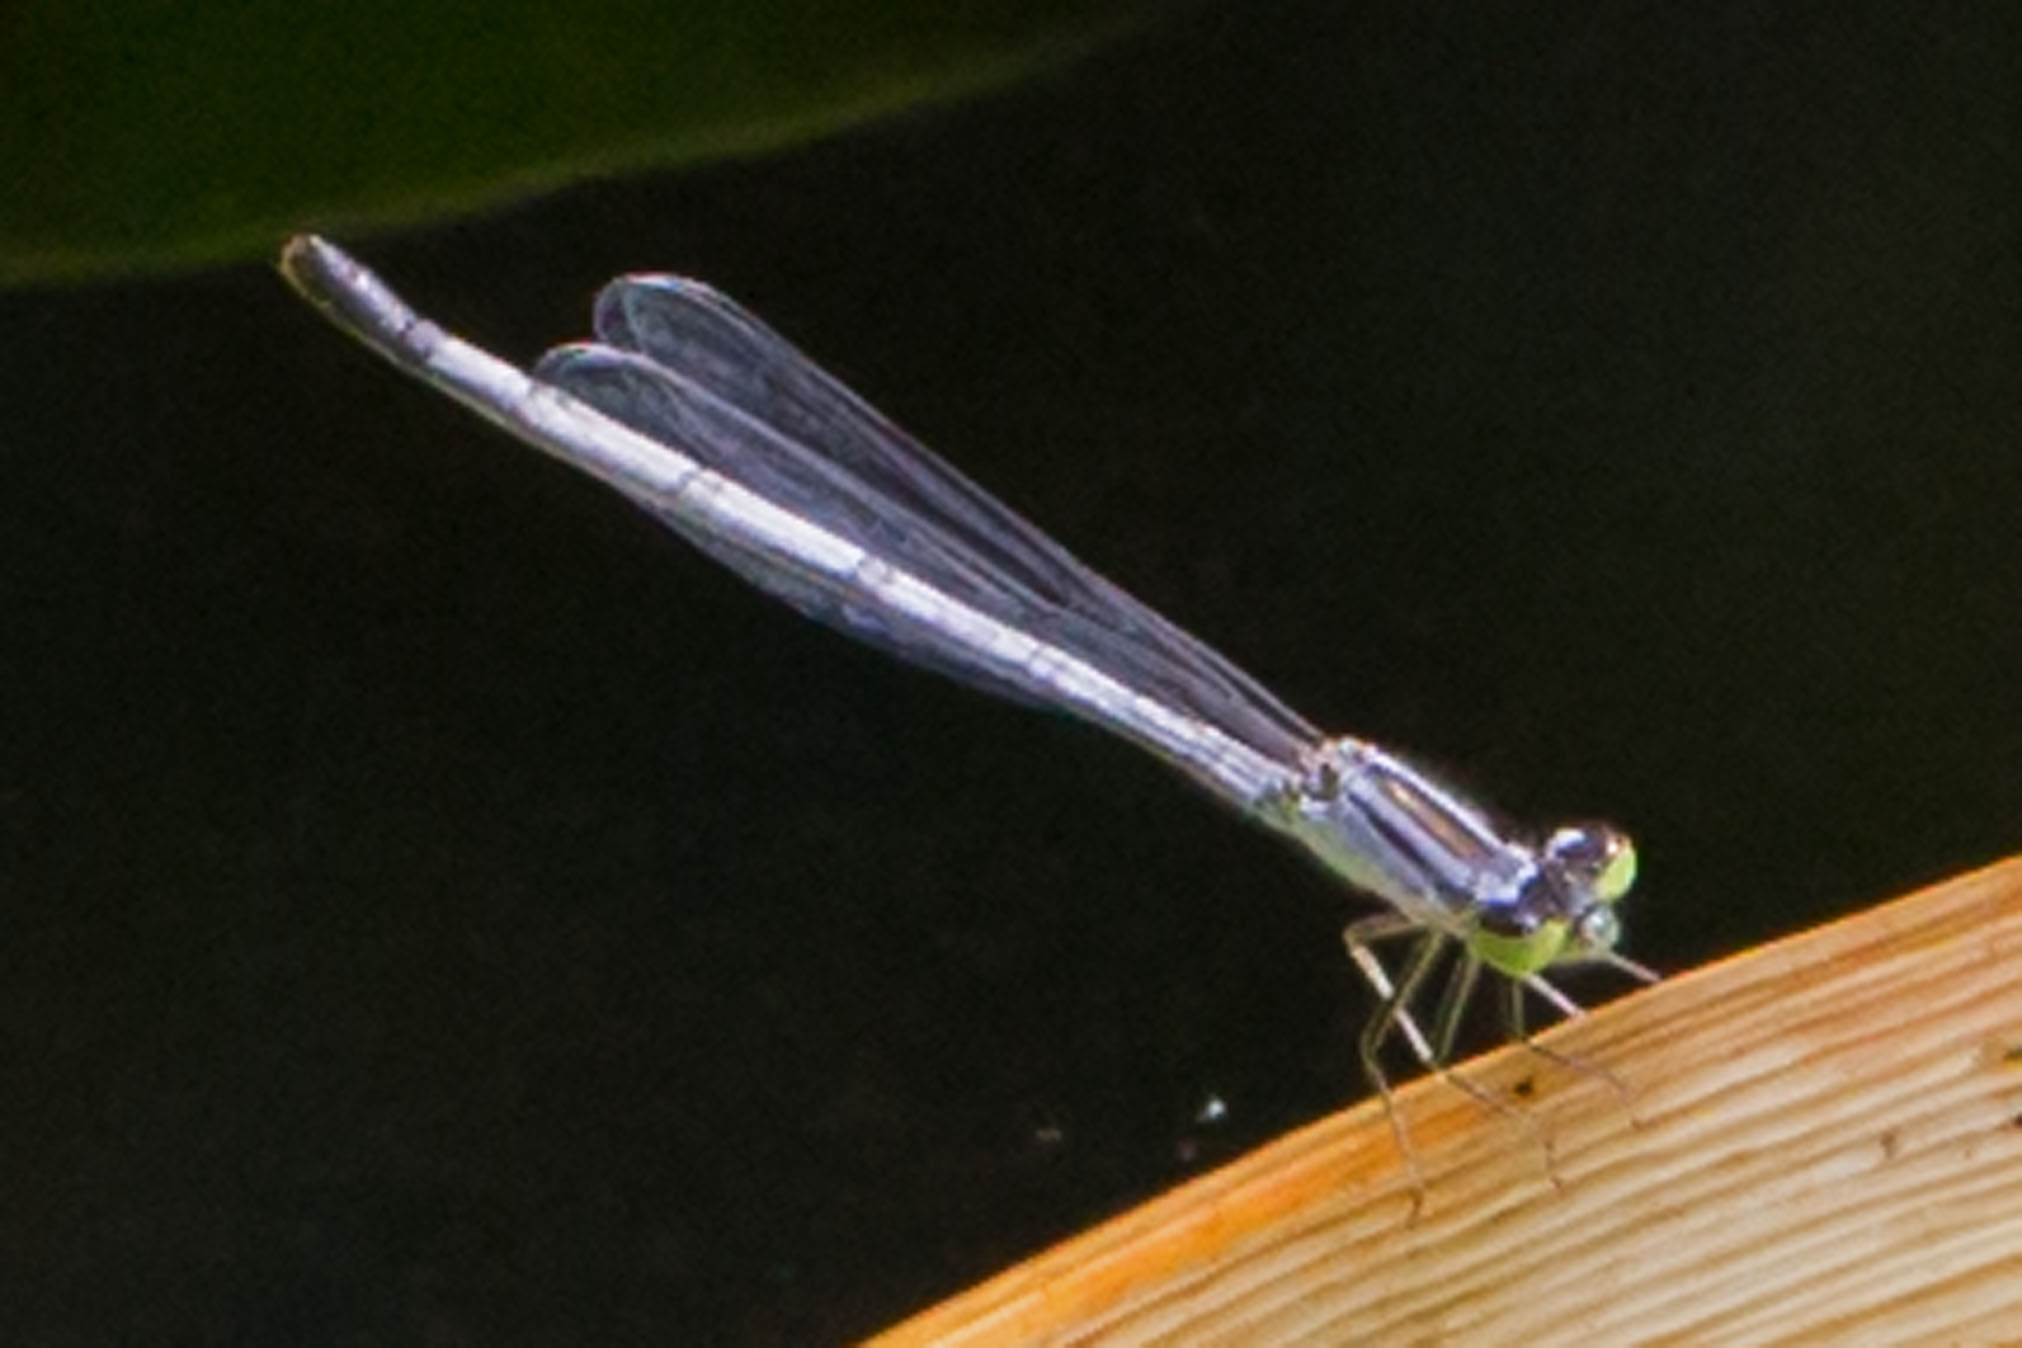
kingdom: Animalia
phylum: Arthropoda
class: Insecta
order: Odonata
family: Coenagrionidae
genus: Ischnura
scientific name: Ischnura verticalis
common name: Eastern forktail
